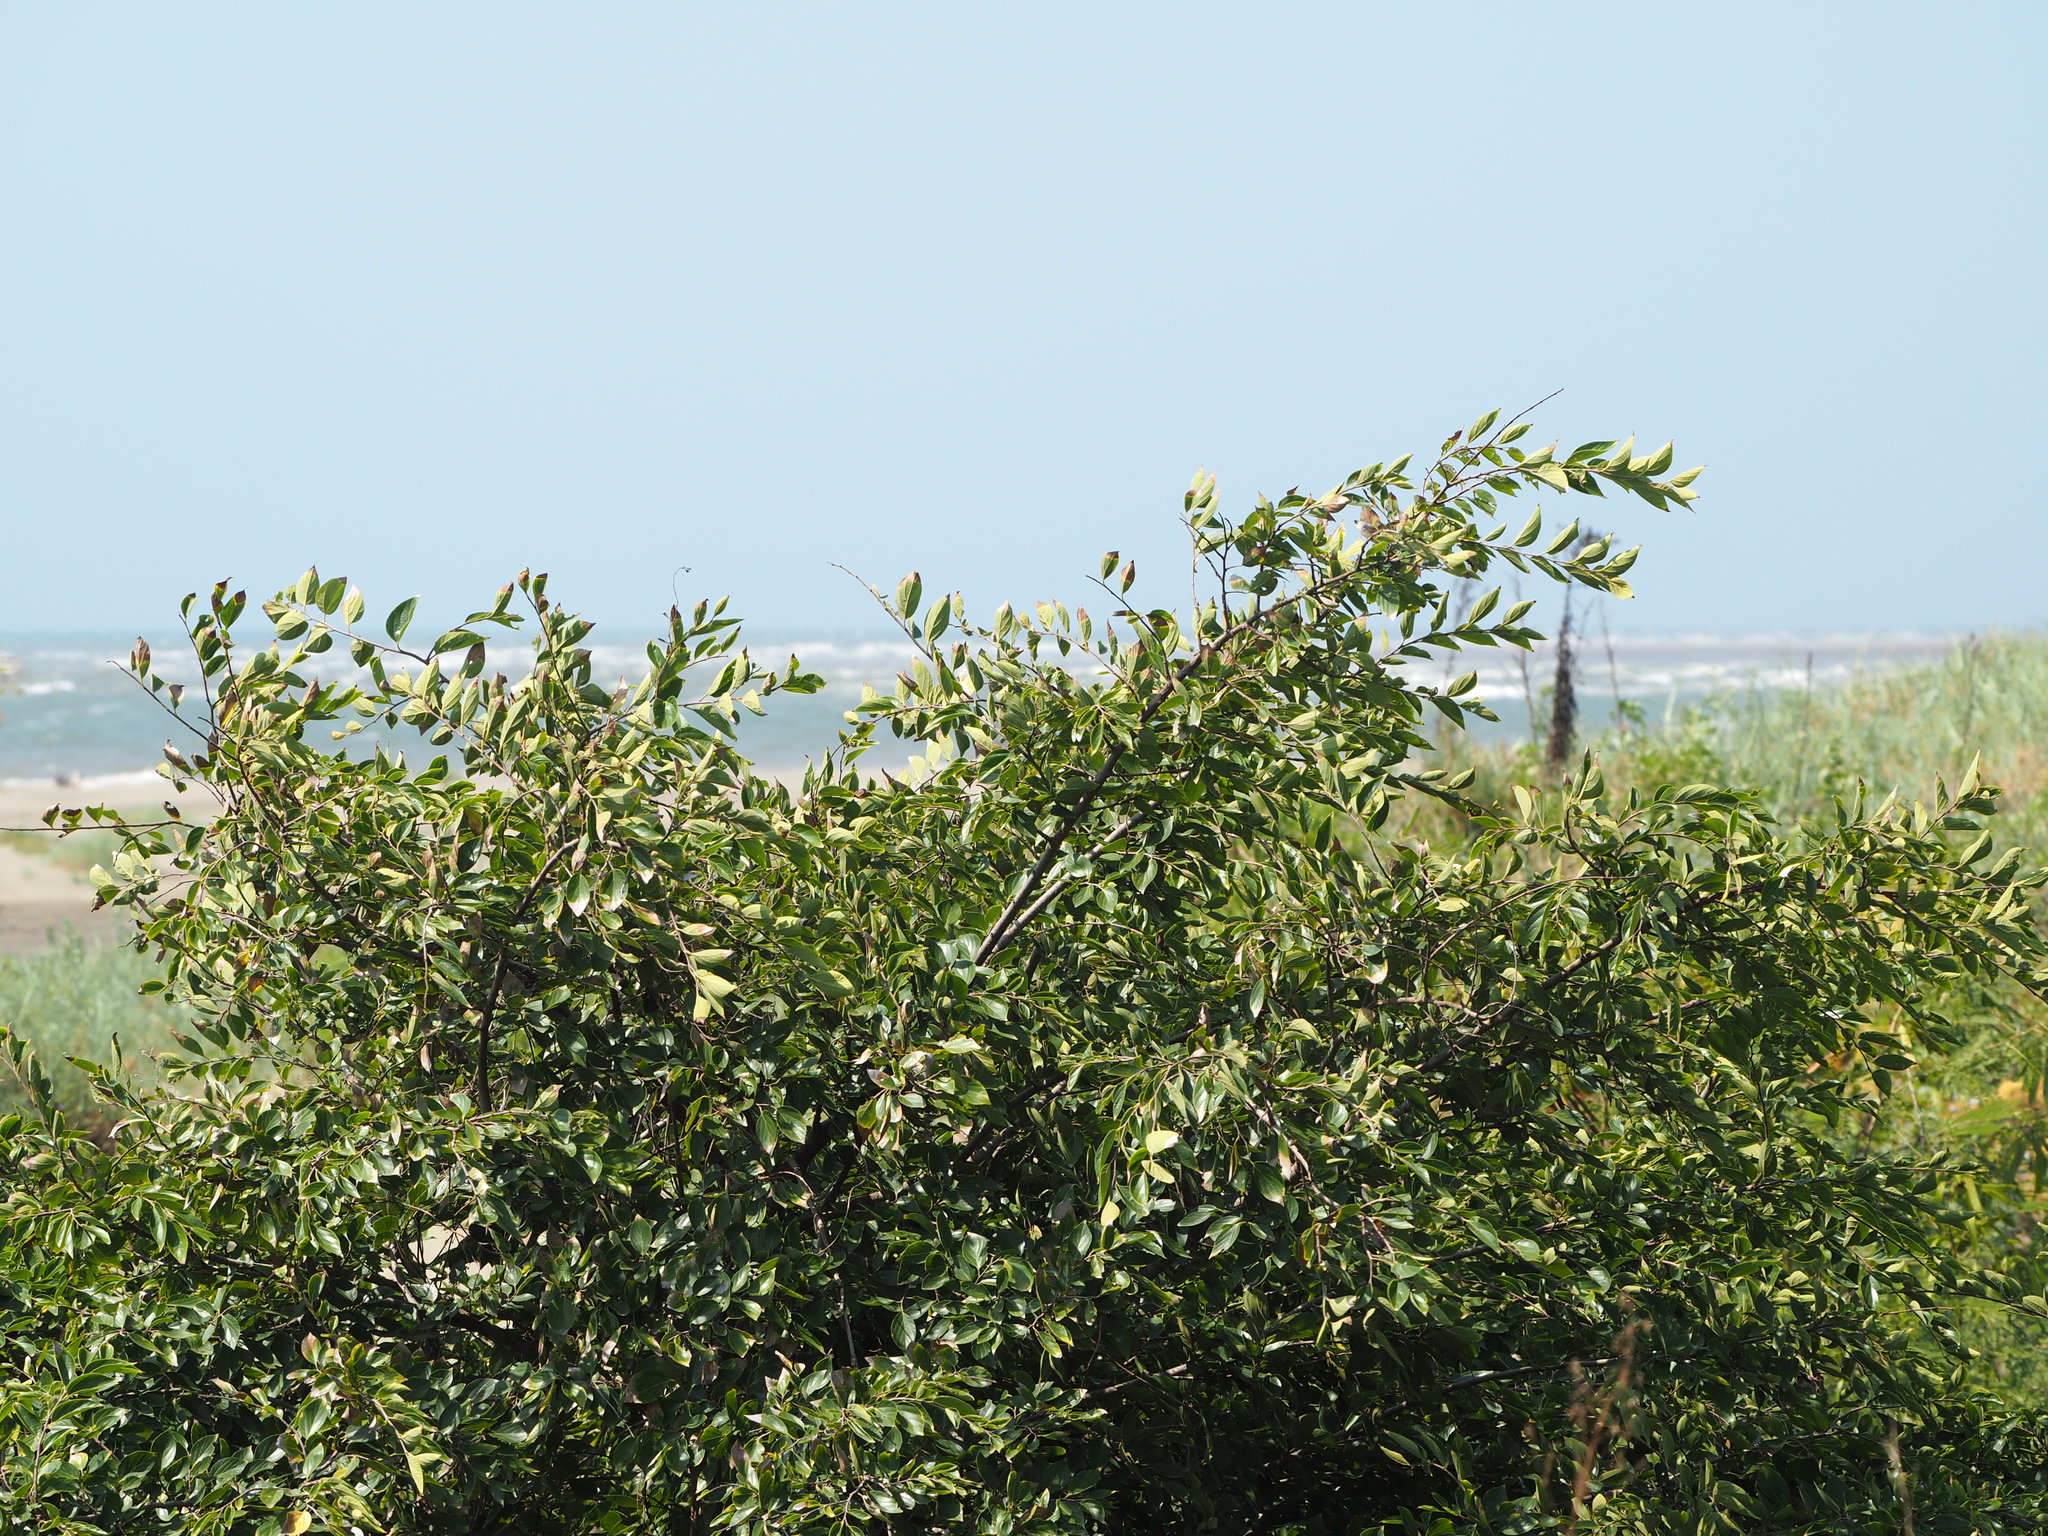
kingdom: Plantae
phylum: Tracheophyta
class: Magnoliopsida
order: Rosales
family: Cannabaceae
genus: Celtis
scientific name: Celtis sinensis
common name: Chinese hackberry
